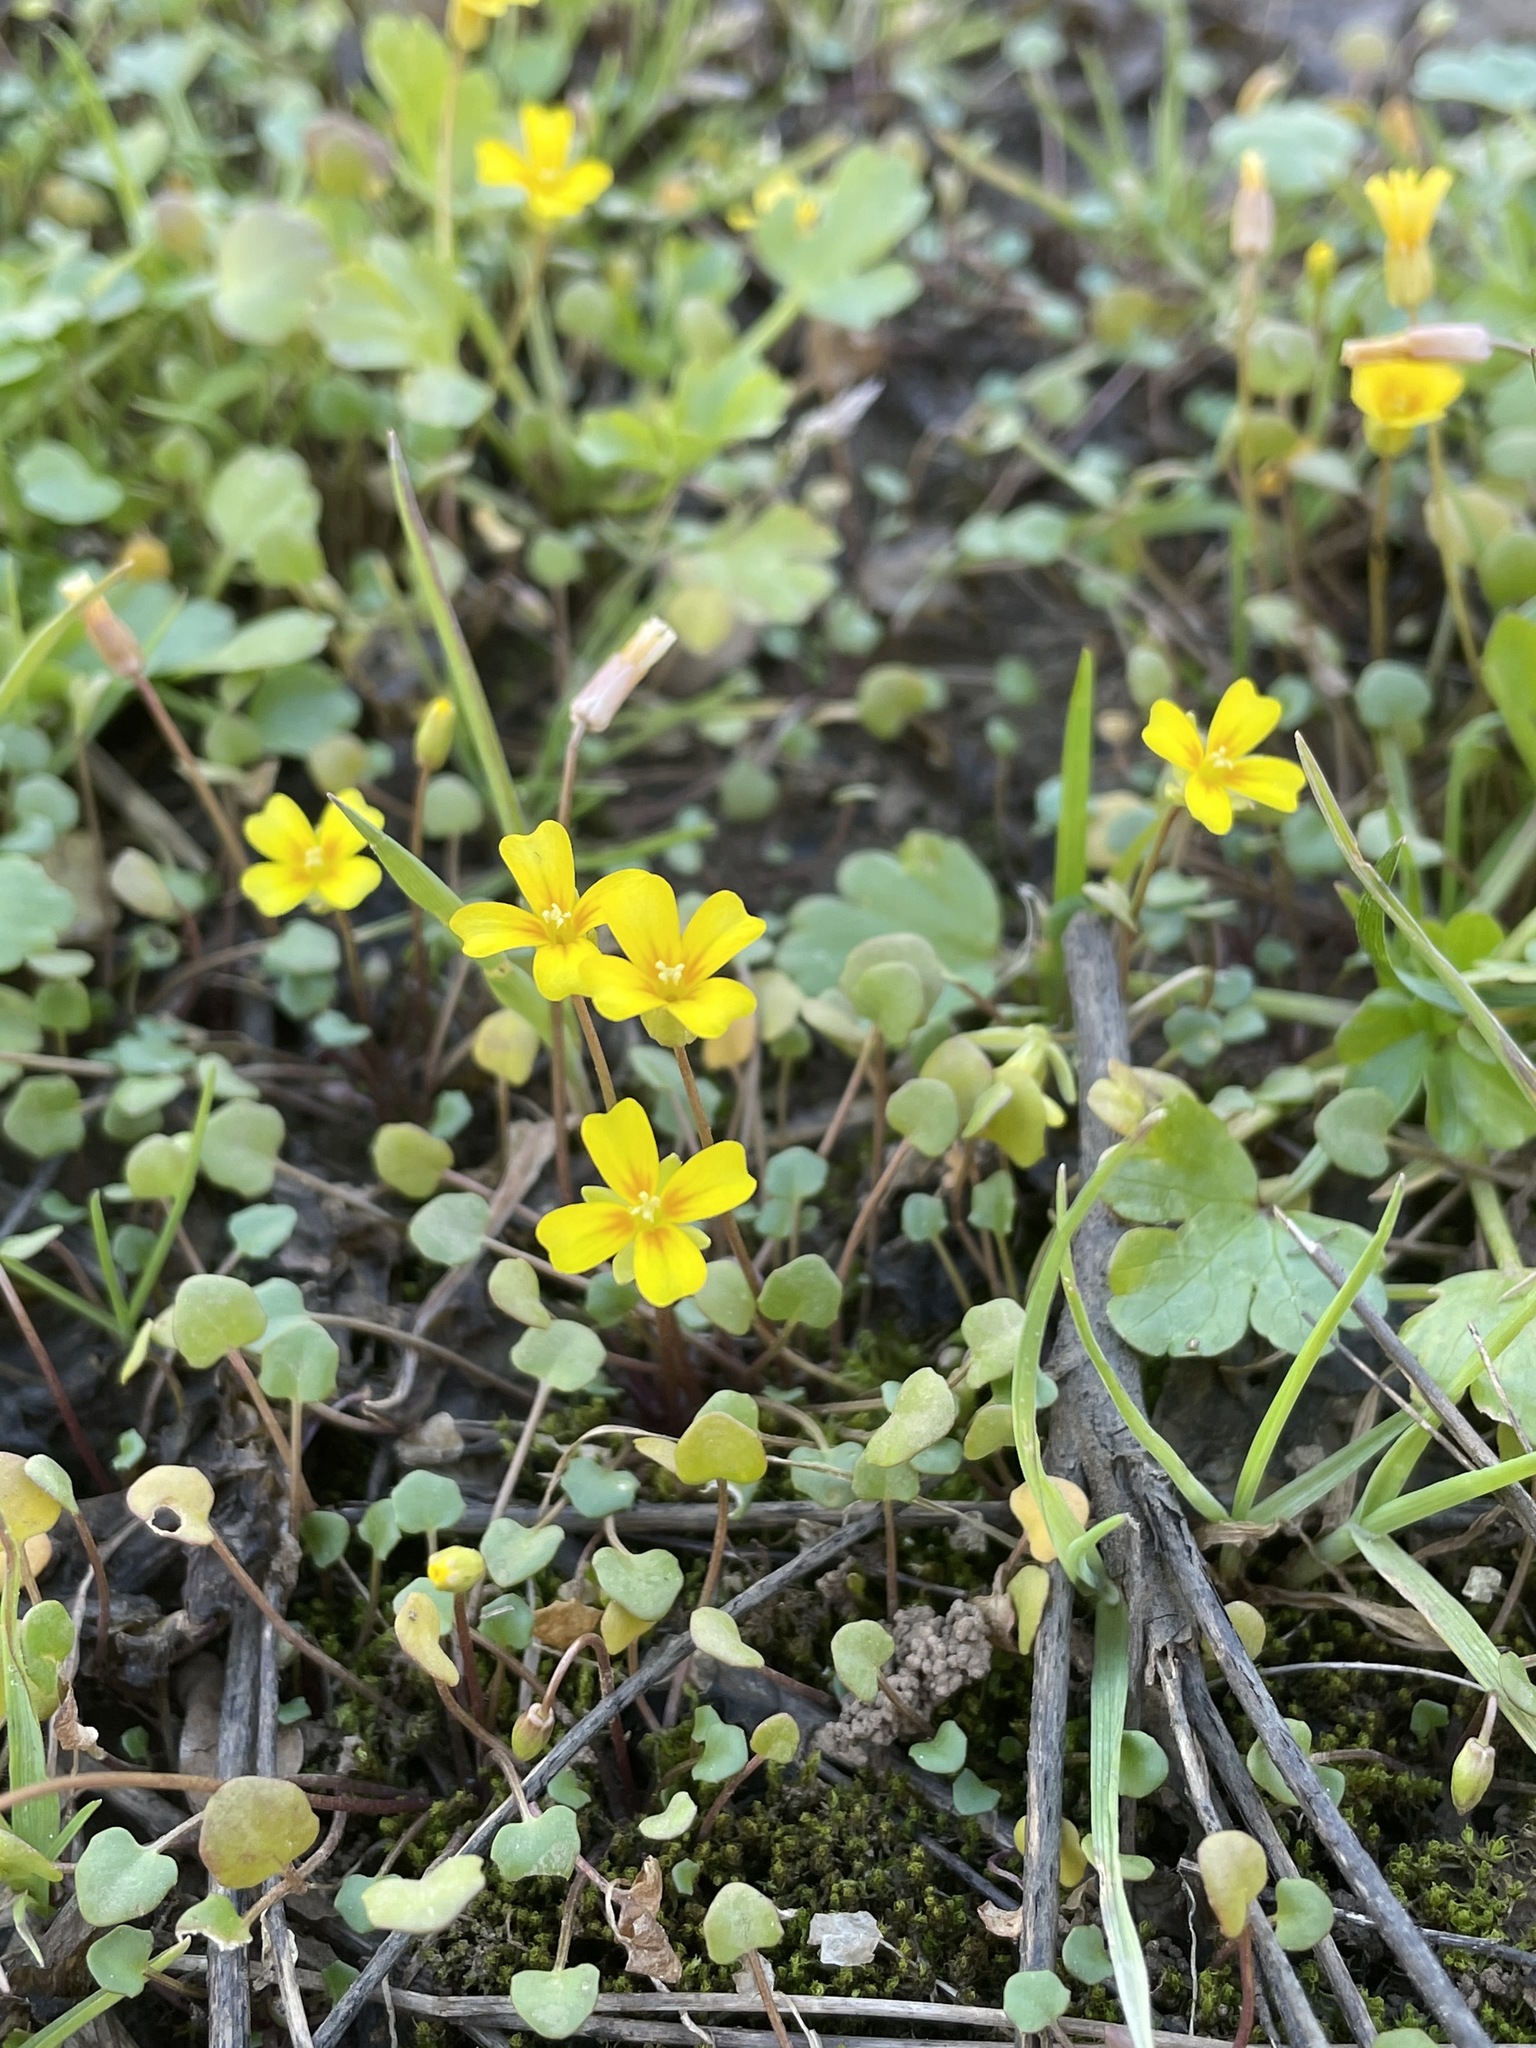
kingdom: Plantae
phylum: Tracheophyta
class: Magnoliopsida
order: Brassicales
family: Brassicaceae
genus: Leavenworthia
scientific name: Leavenworthia exigua
